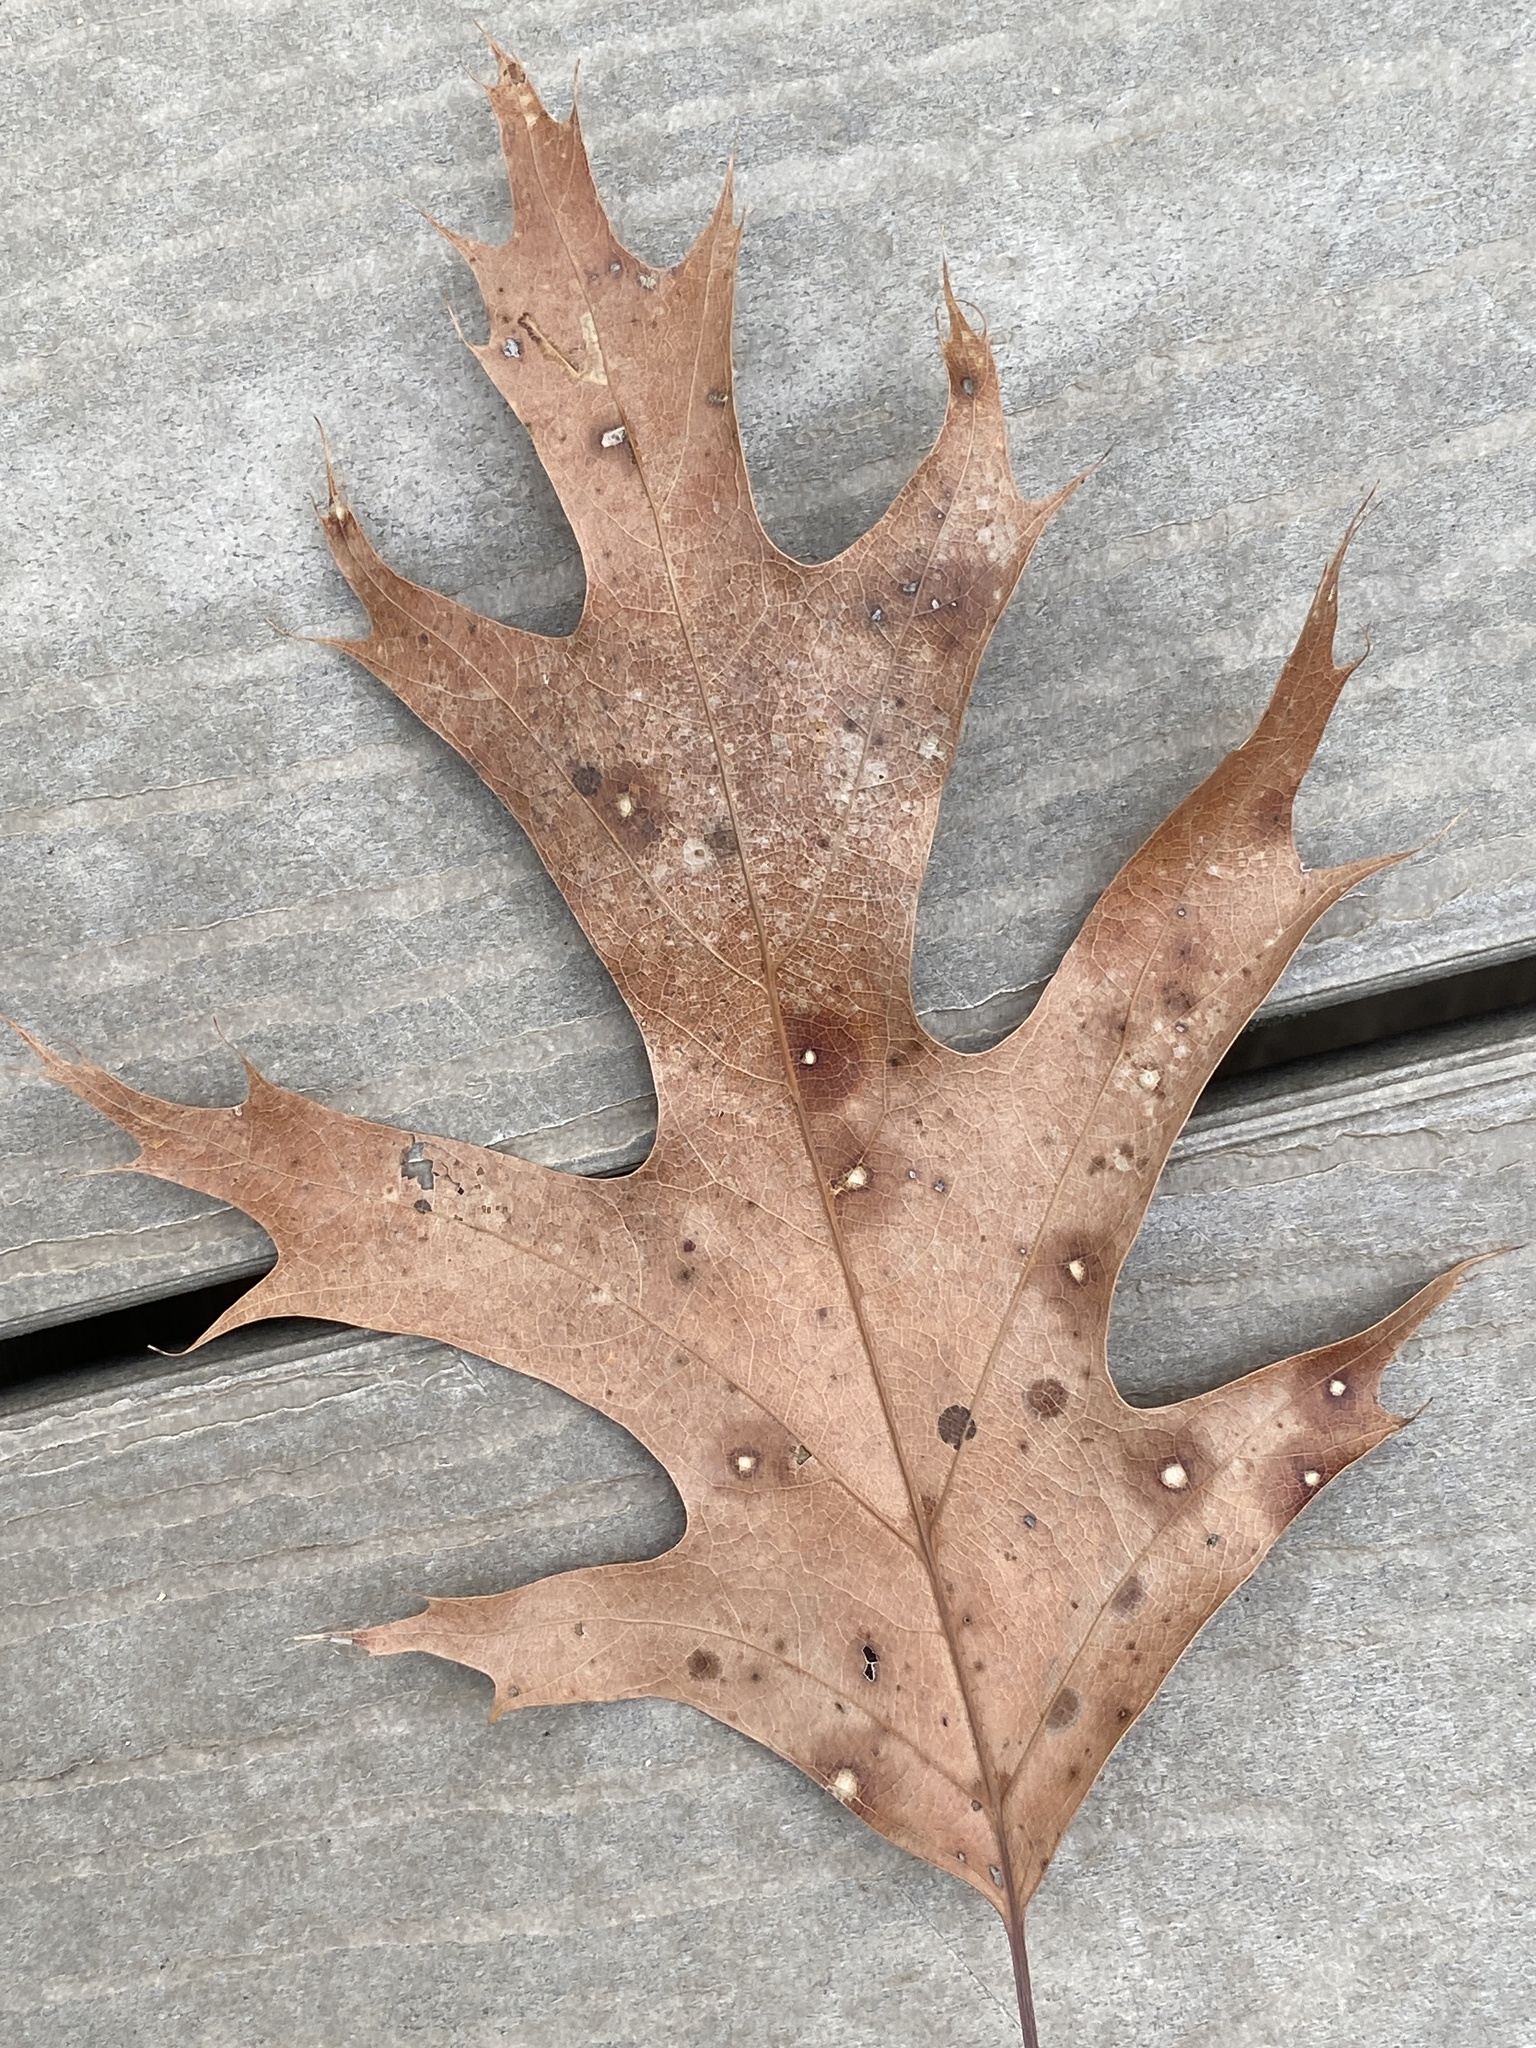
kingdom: Plantae
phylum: Tracheophyta
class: Magnoliopsida
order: Fagales
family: Fagaceae
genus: Quercus
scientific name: Quercus rubra
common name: Red oak
